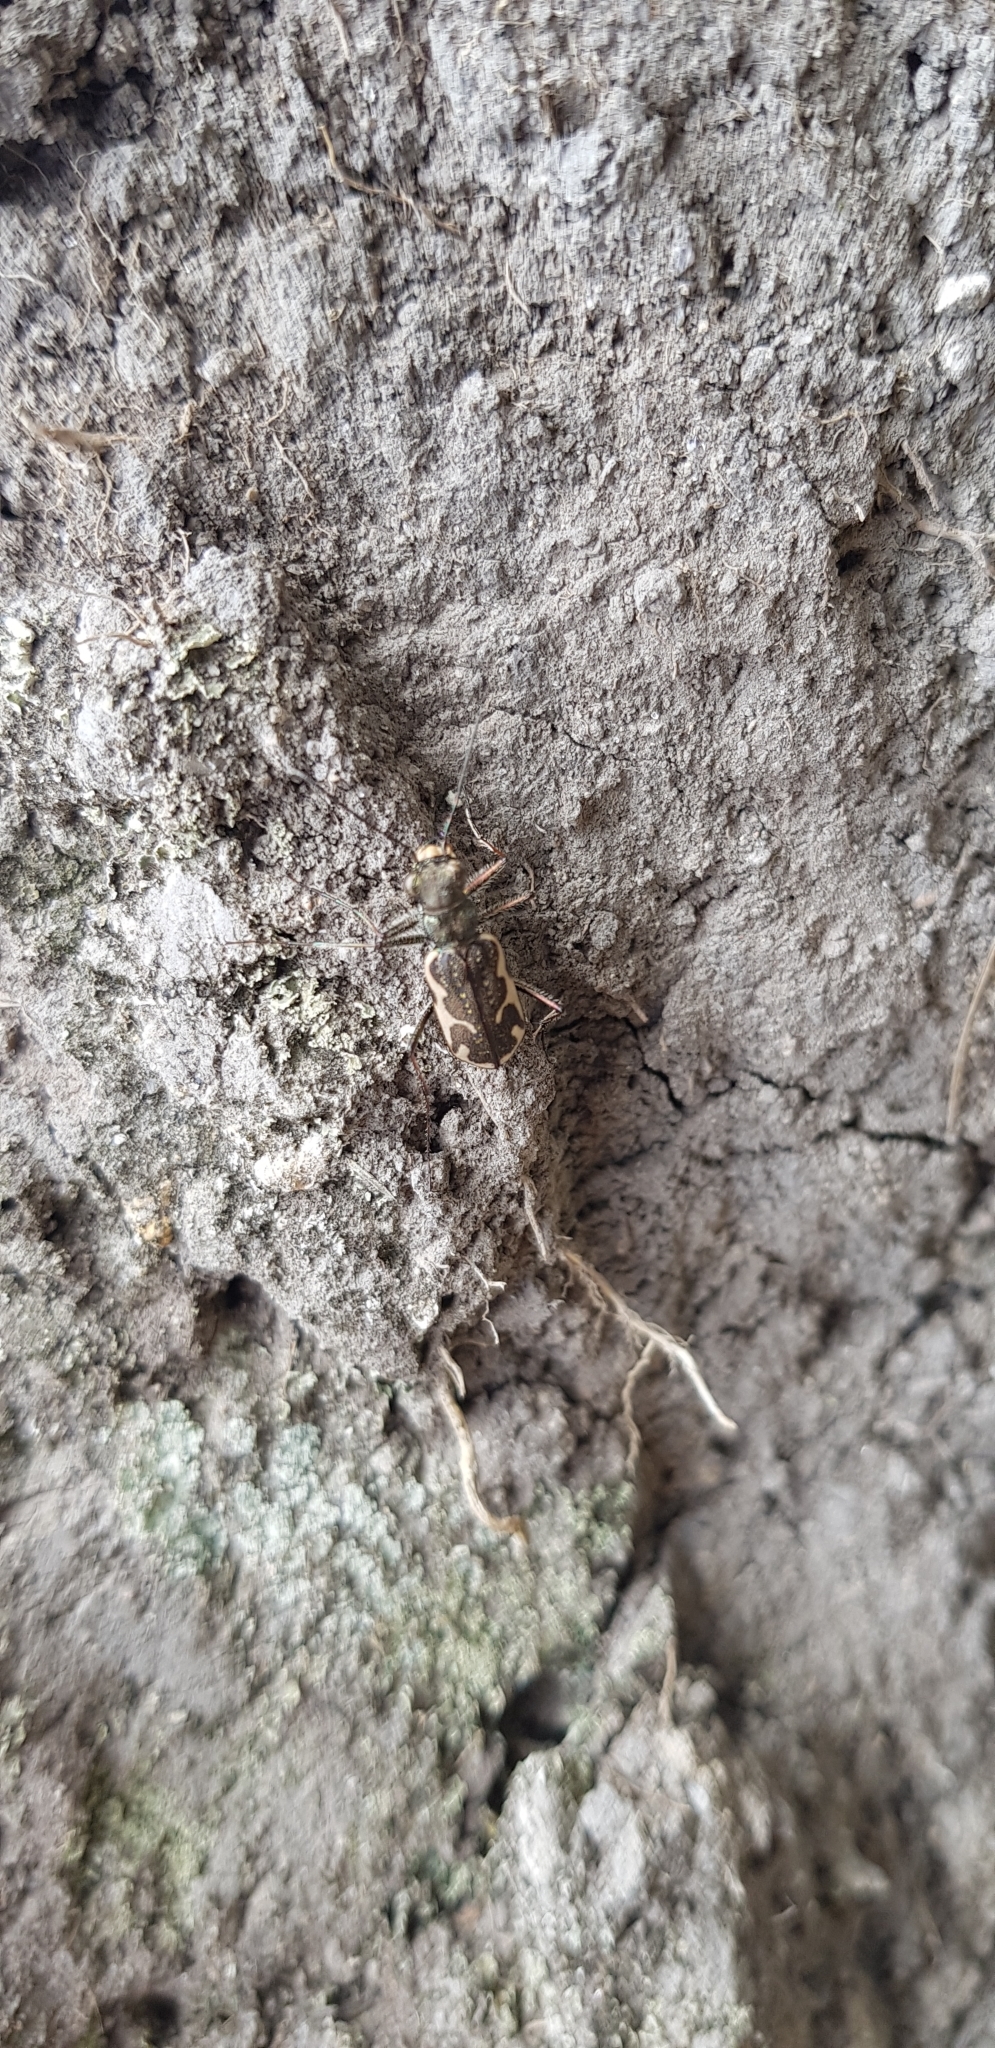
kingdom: Animalia
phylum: Arthropoda
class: Insecta
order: Coleoptera
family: Carabidae
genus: Neocicindela
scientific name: Neocicindela tuberculata
